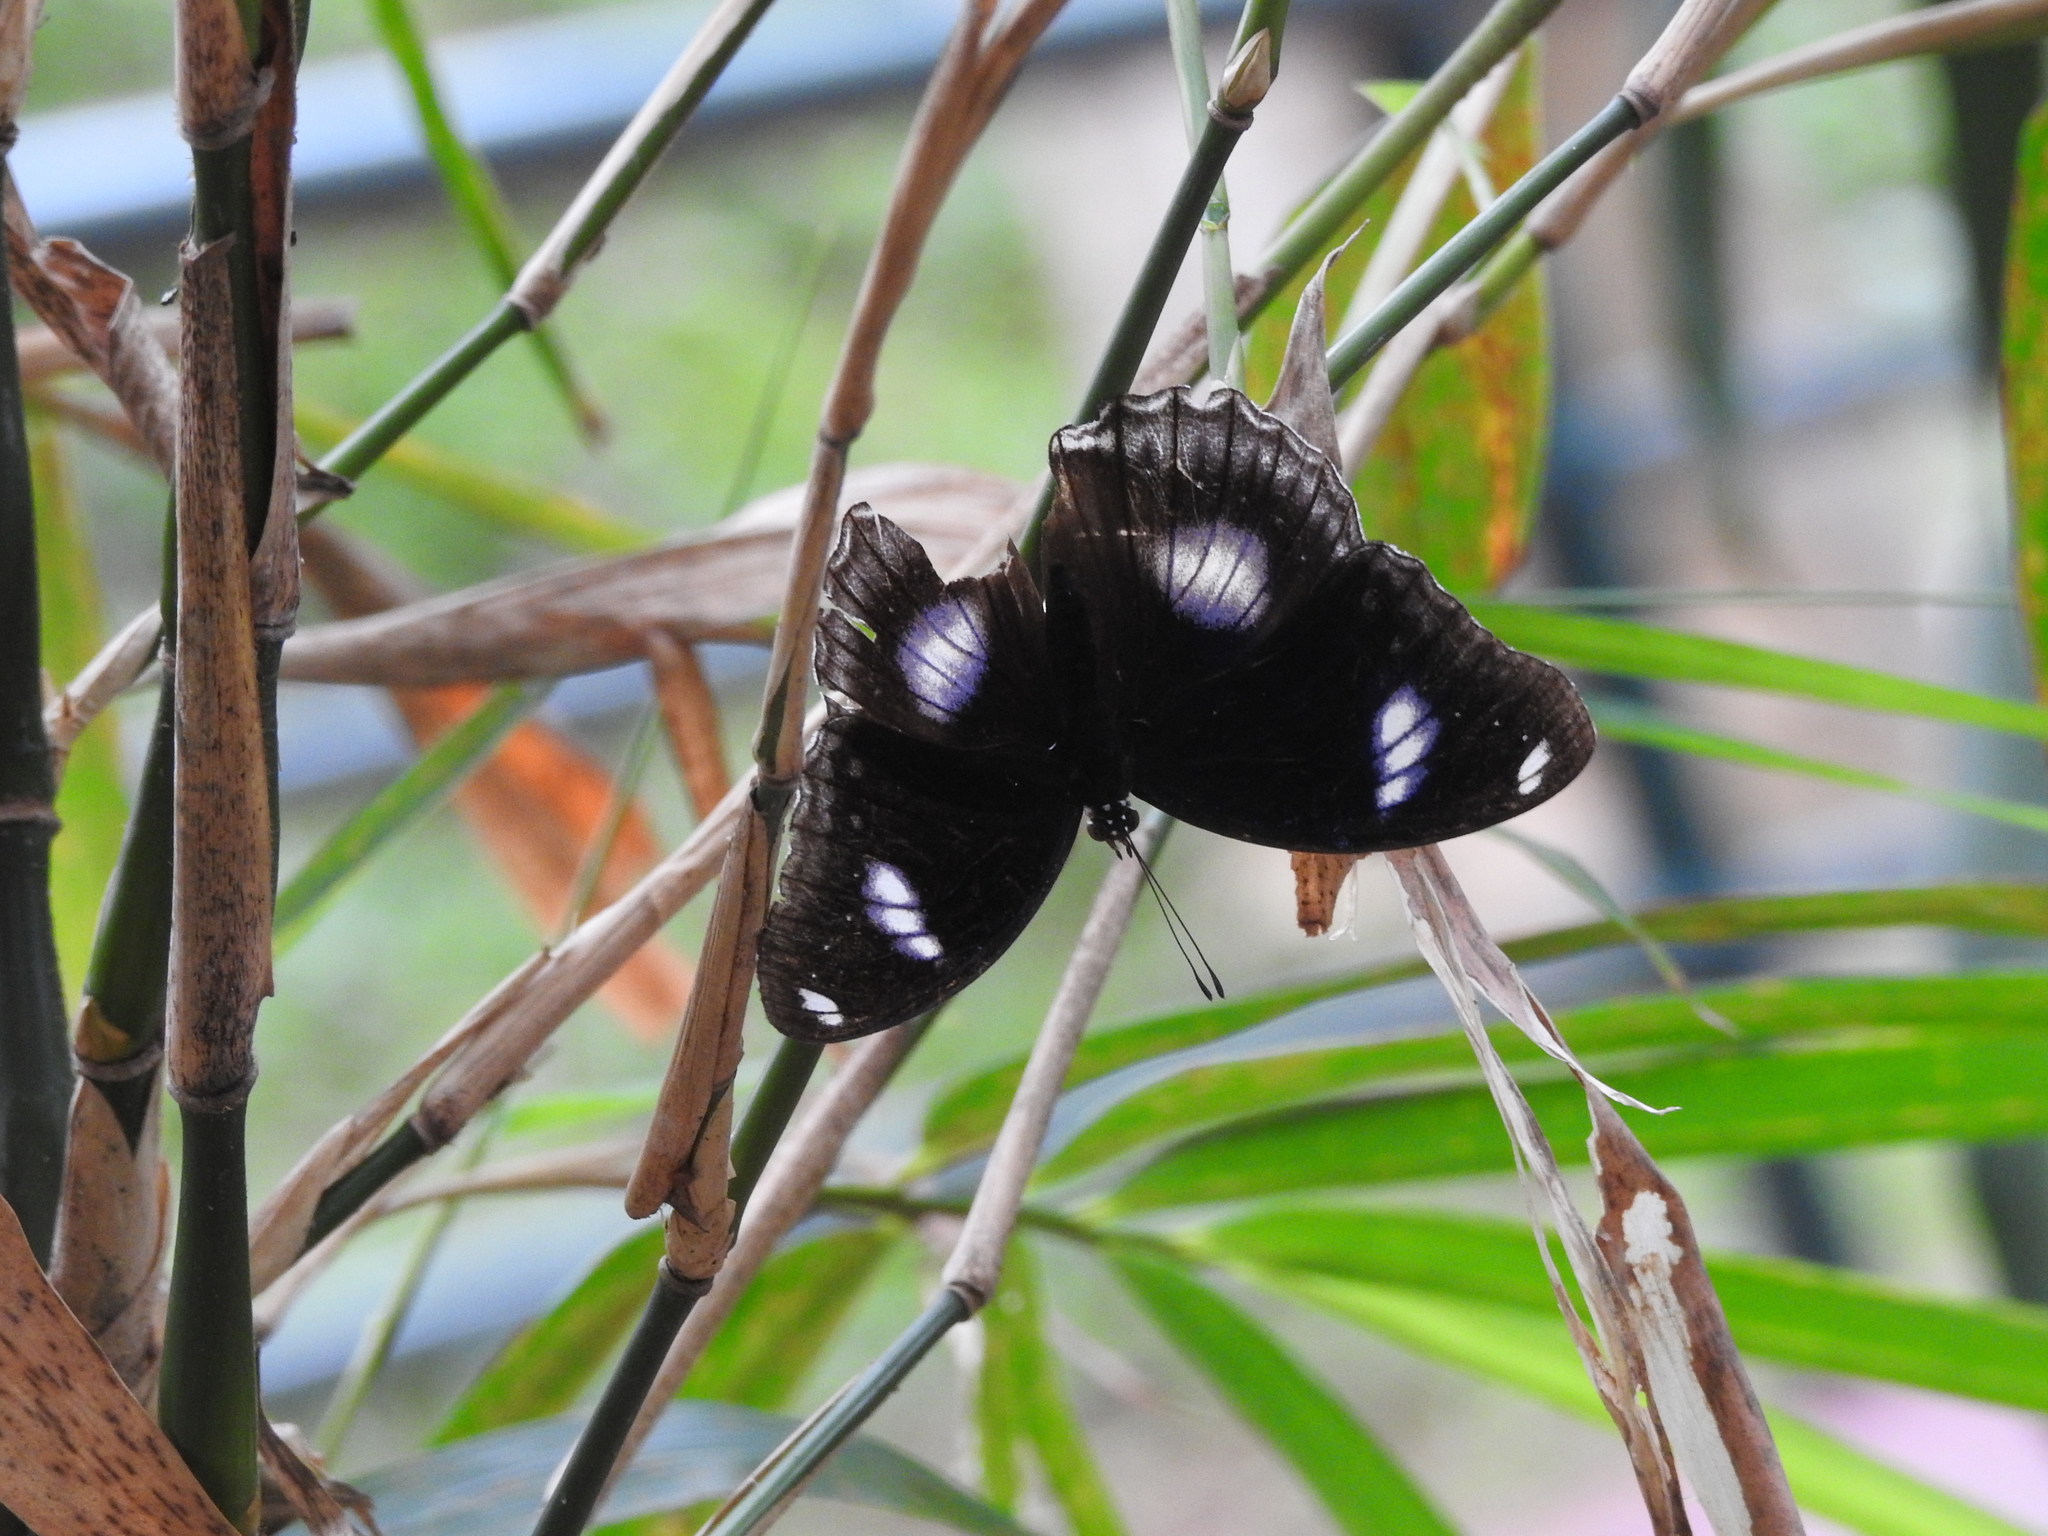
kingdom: Animalia
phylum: Arthropoda
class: Insecta
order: Lepidoptera
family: Nymphalidae
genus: Hypolimnas
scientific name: Hypolimnas bolina
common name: Great eggfly
